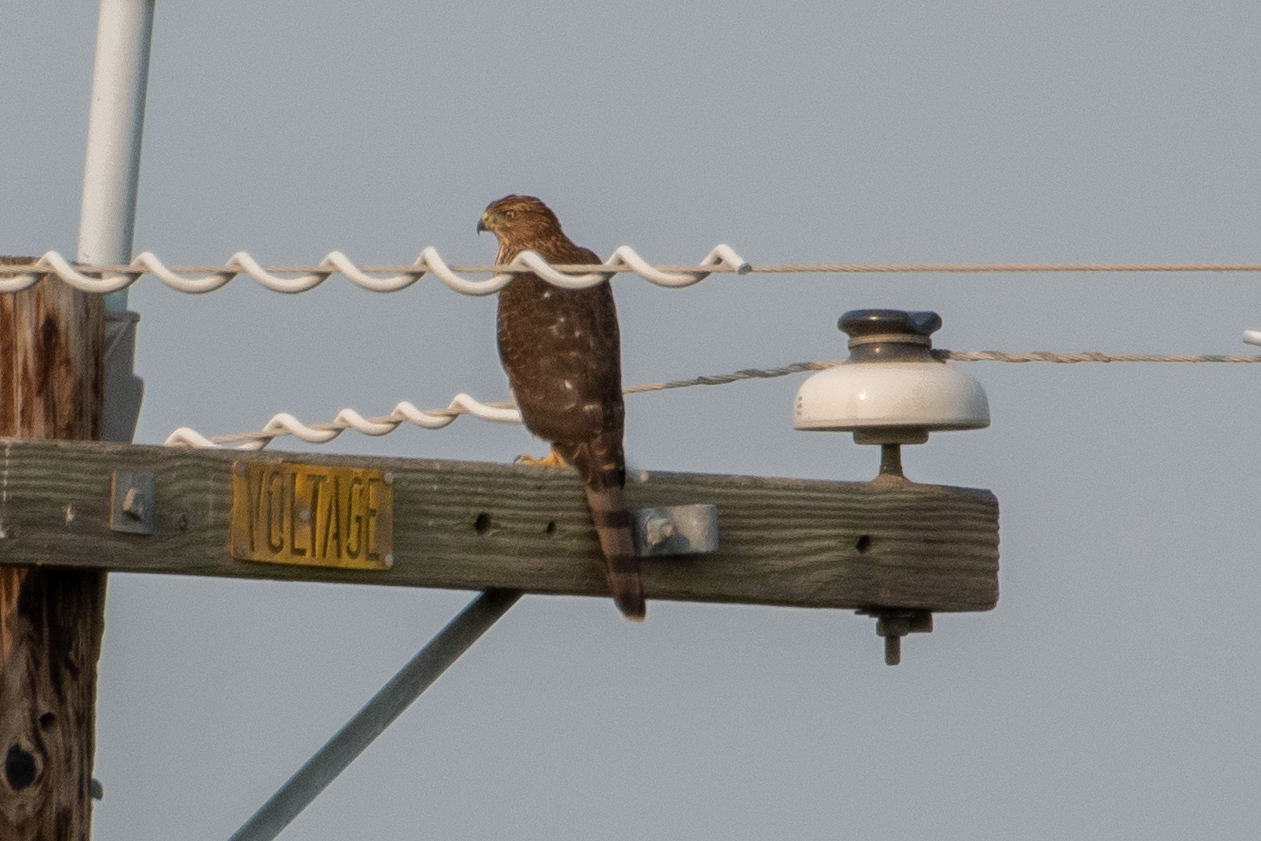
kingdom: Animalia
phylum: Chordata
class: Aves
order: Accipitriformes
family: Accipitridae
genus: Accipiter
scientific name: Accipiter cooperii
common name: Cooper's hawk
